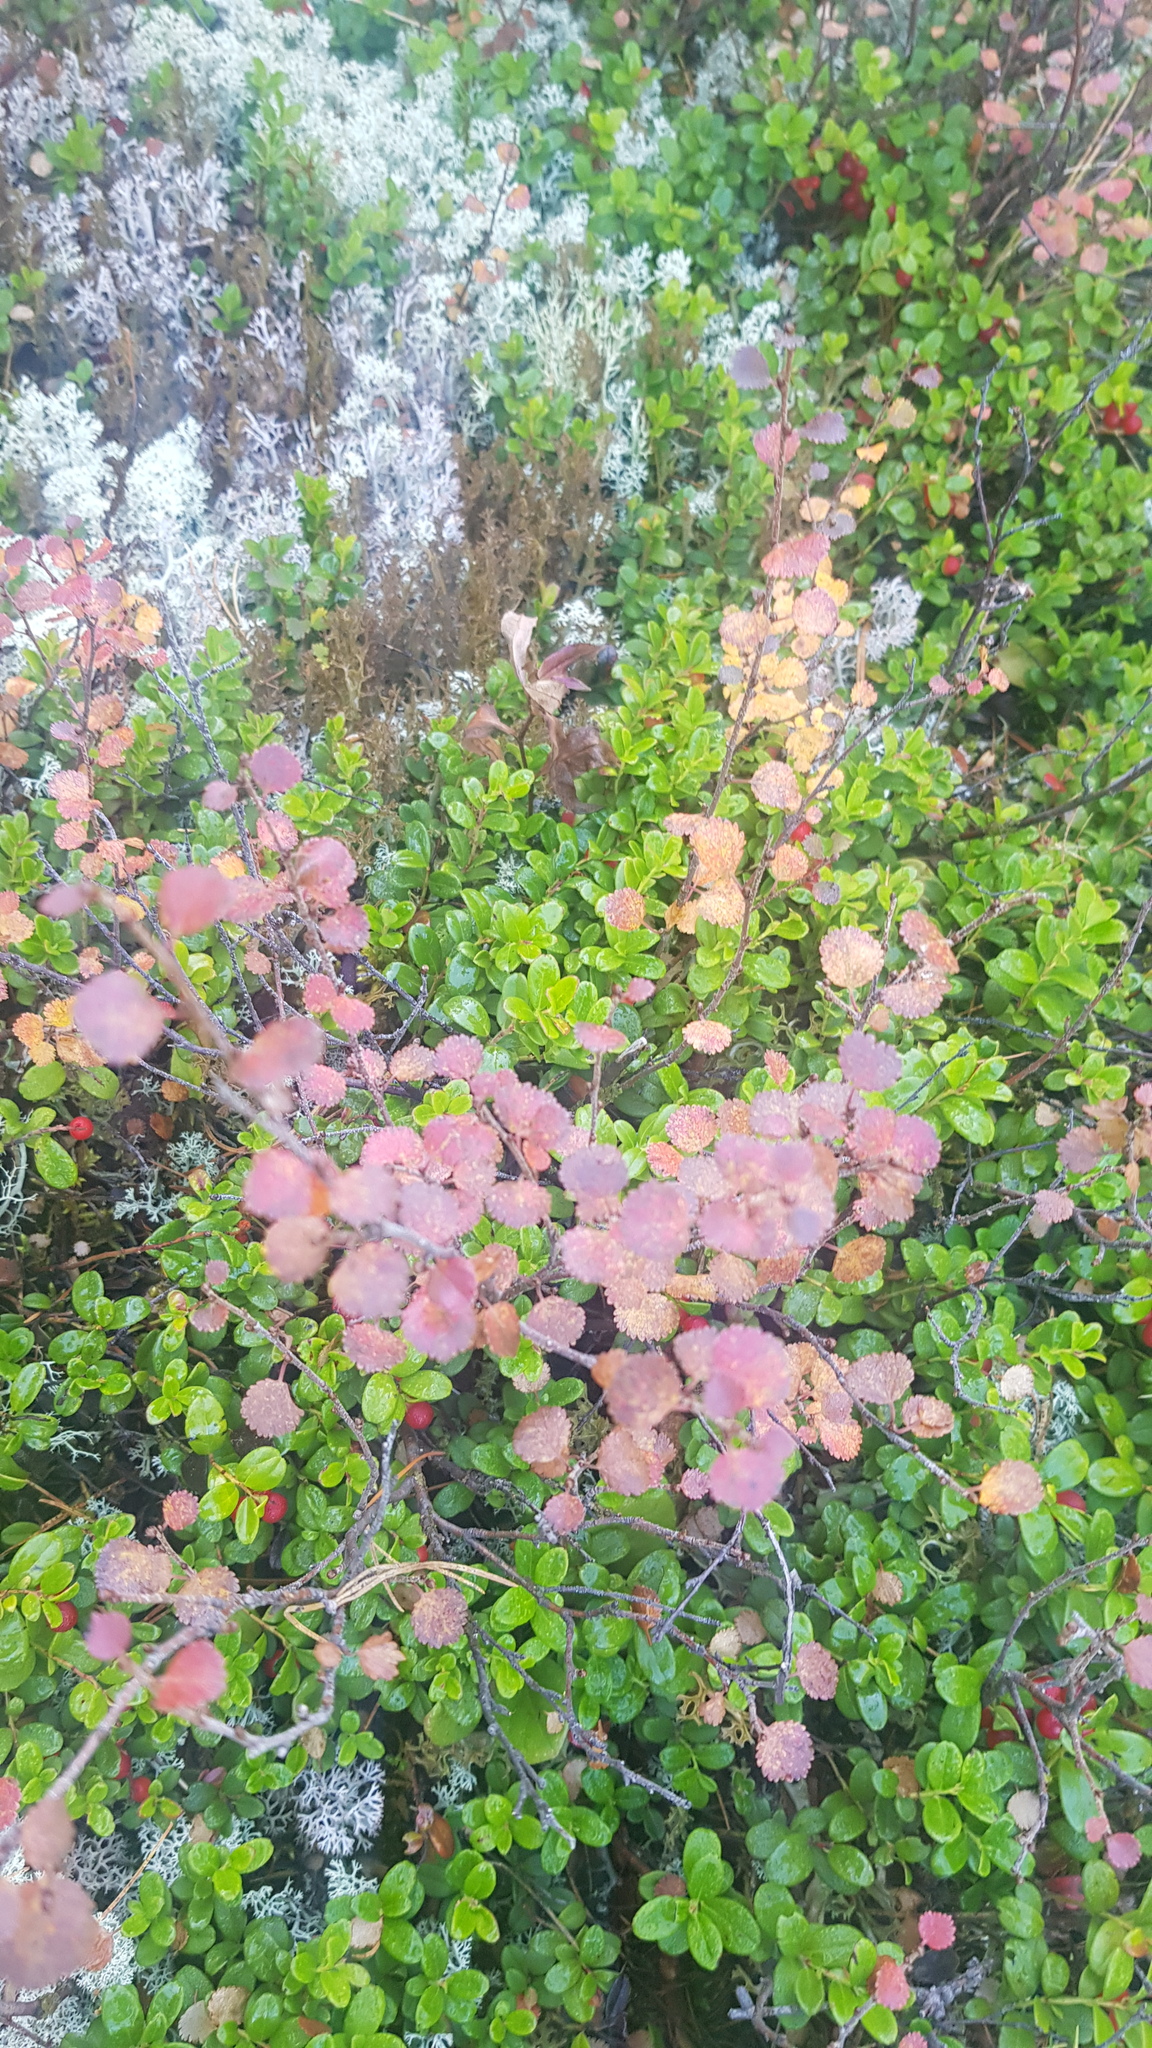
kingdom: Plantae
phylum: Tracheophyta
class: Magnoliopsida
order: Fagales
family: Betulaceae
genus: Betula
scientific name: Betula glandulosa
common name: Dwarf birch
